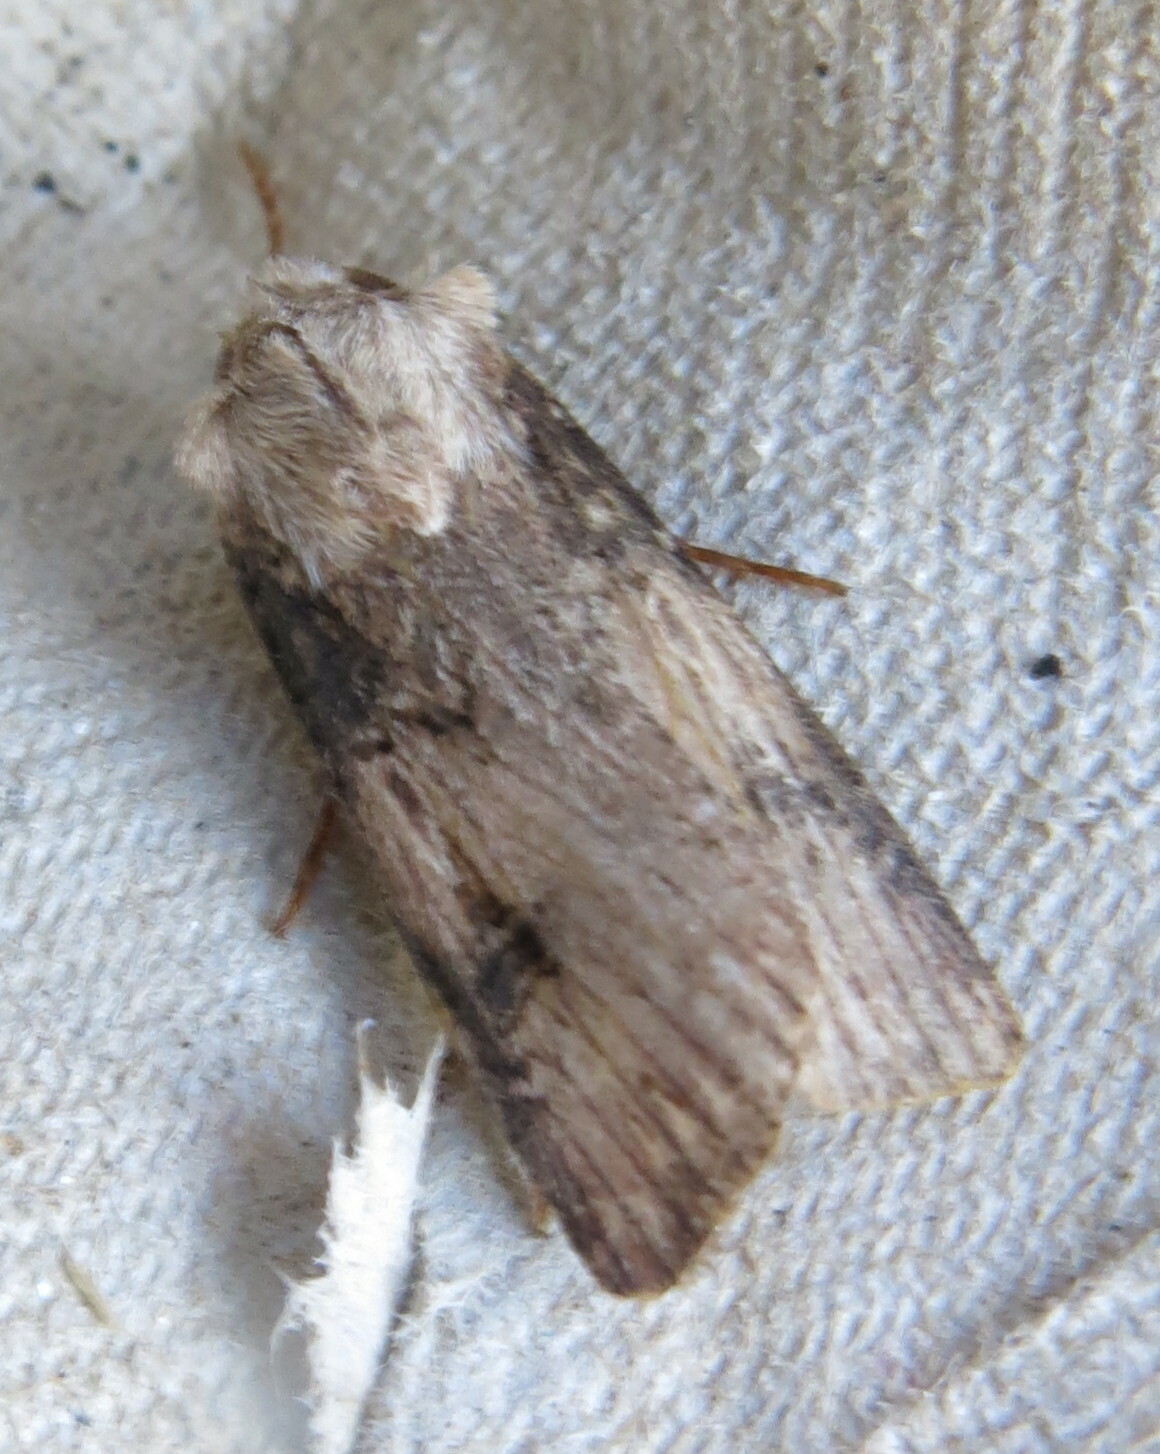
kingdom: Animalia
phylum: Arthropoda
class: Insecta
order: Lepidoptera
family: Noctuidae
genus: Agrotis
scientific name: Agrotis puta
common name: Shuttle-shaped dart
